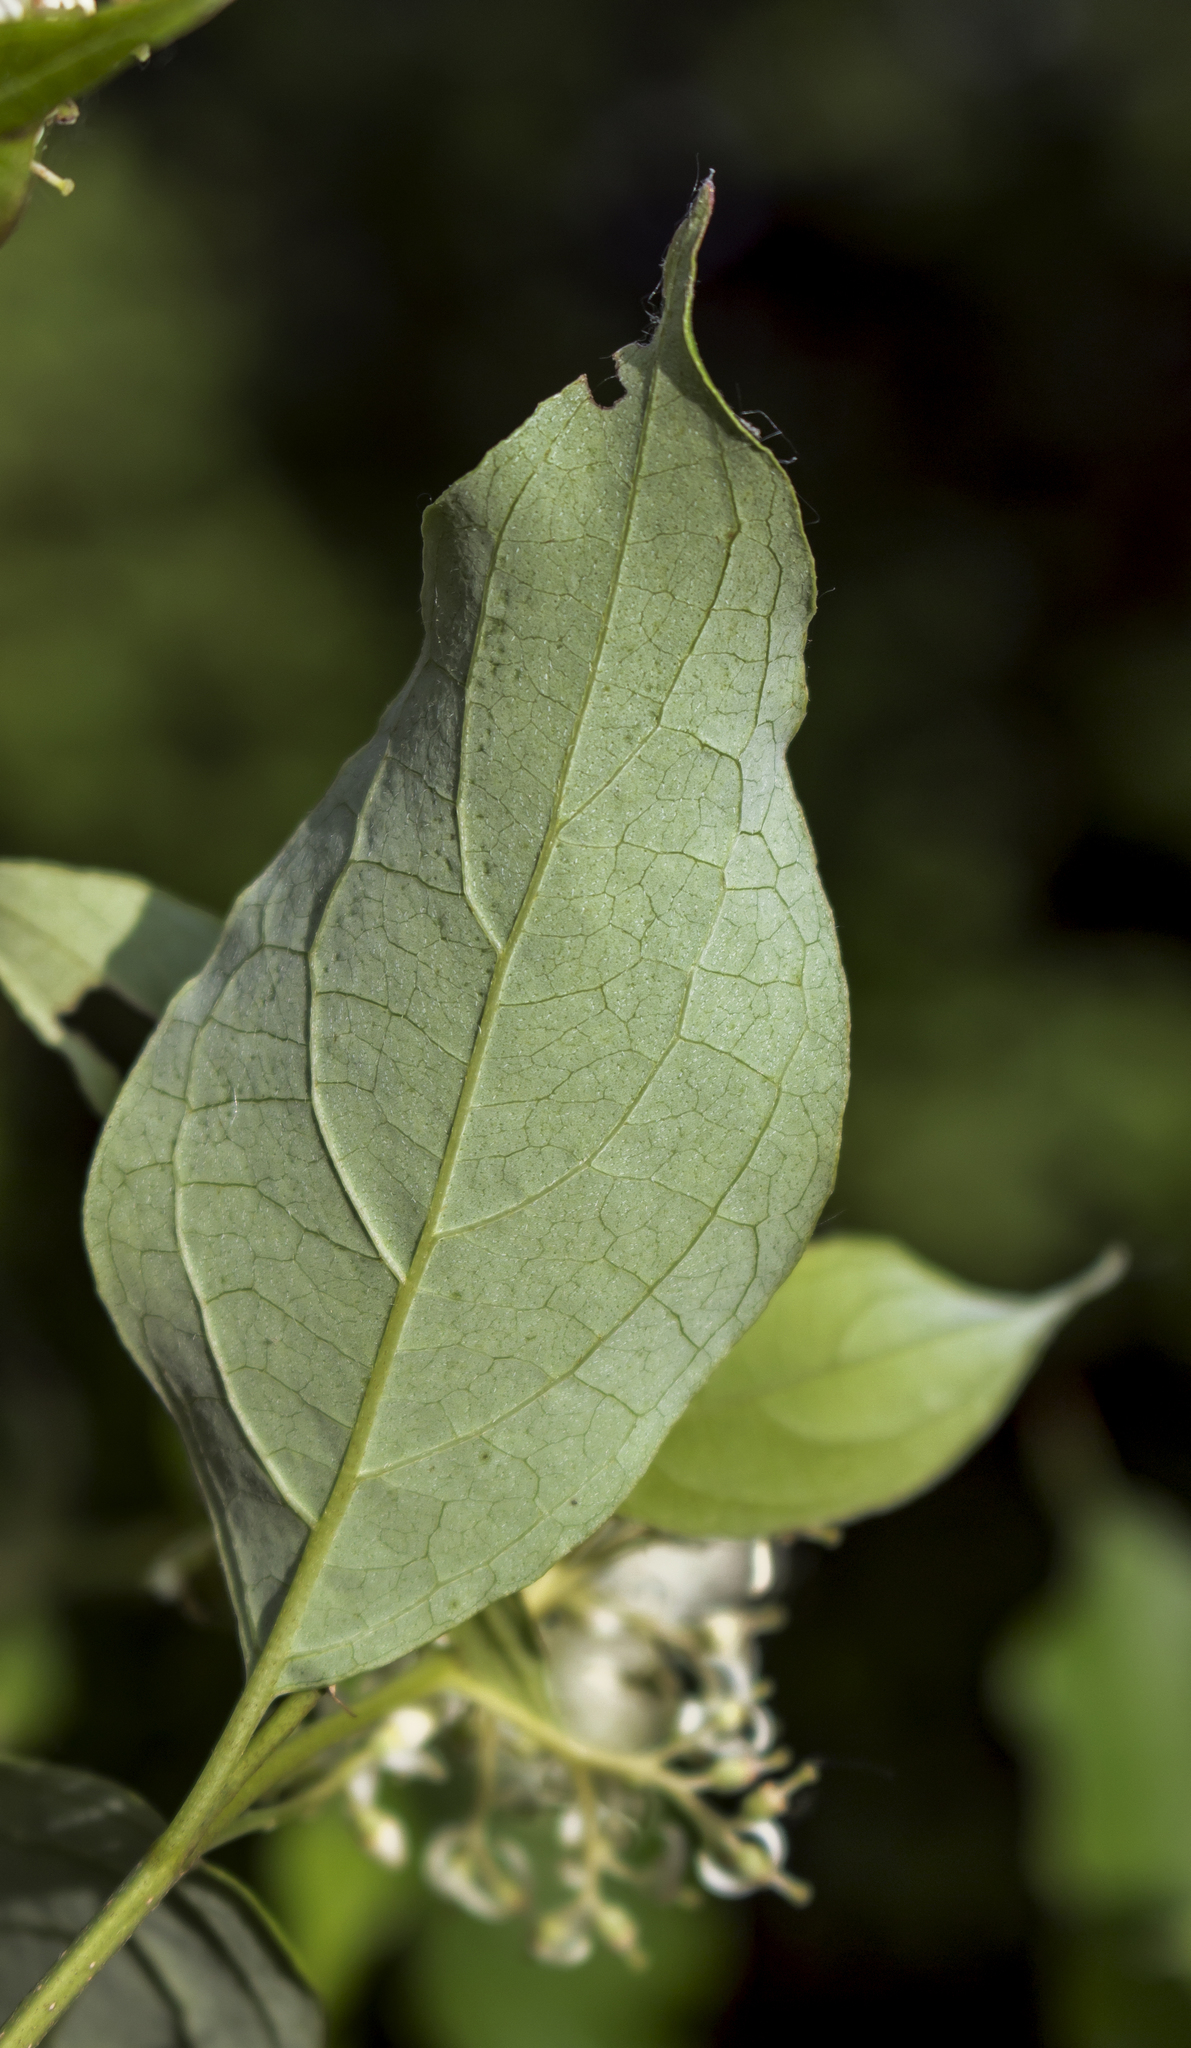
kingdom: Plantae
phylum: Tracheophyta
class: Magnoliopsida
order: Cornales
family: Cornaceae
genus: Cornus
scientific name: Cornus racemosa
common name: Panicled dogwood
